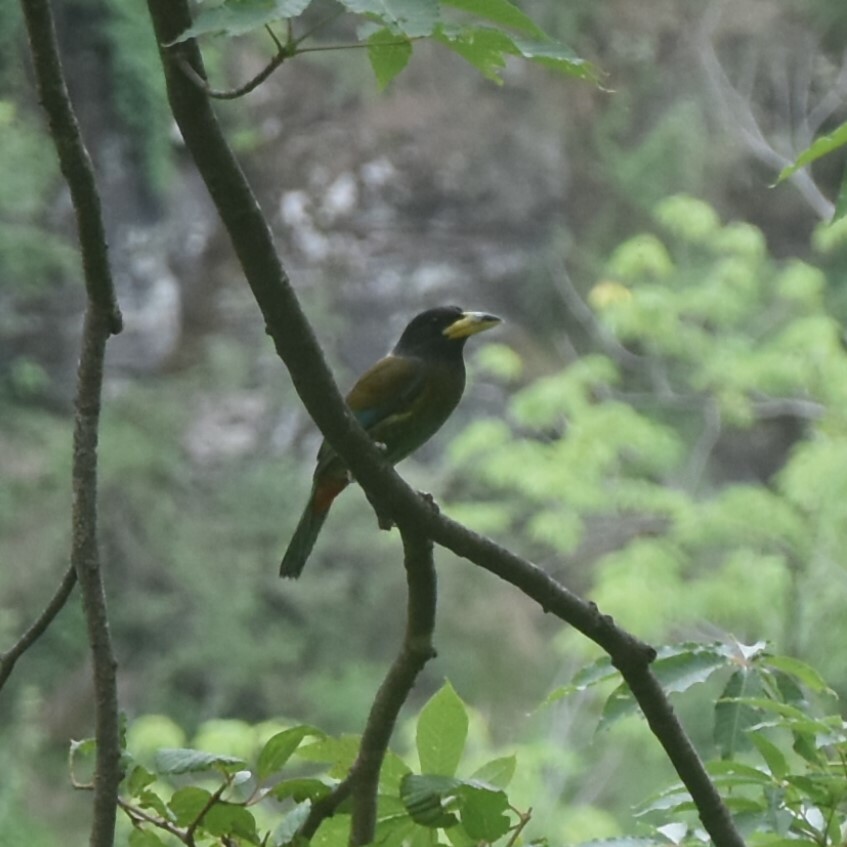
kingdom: Animalia
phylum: Chordata
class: Aves
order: Piciformes
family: Megalaimidae
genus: Psilopogon
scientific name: Psilopogon virens
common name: Great barbet
